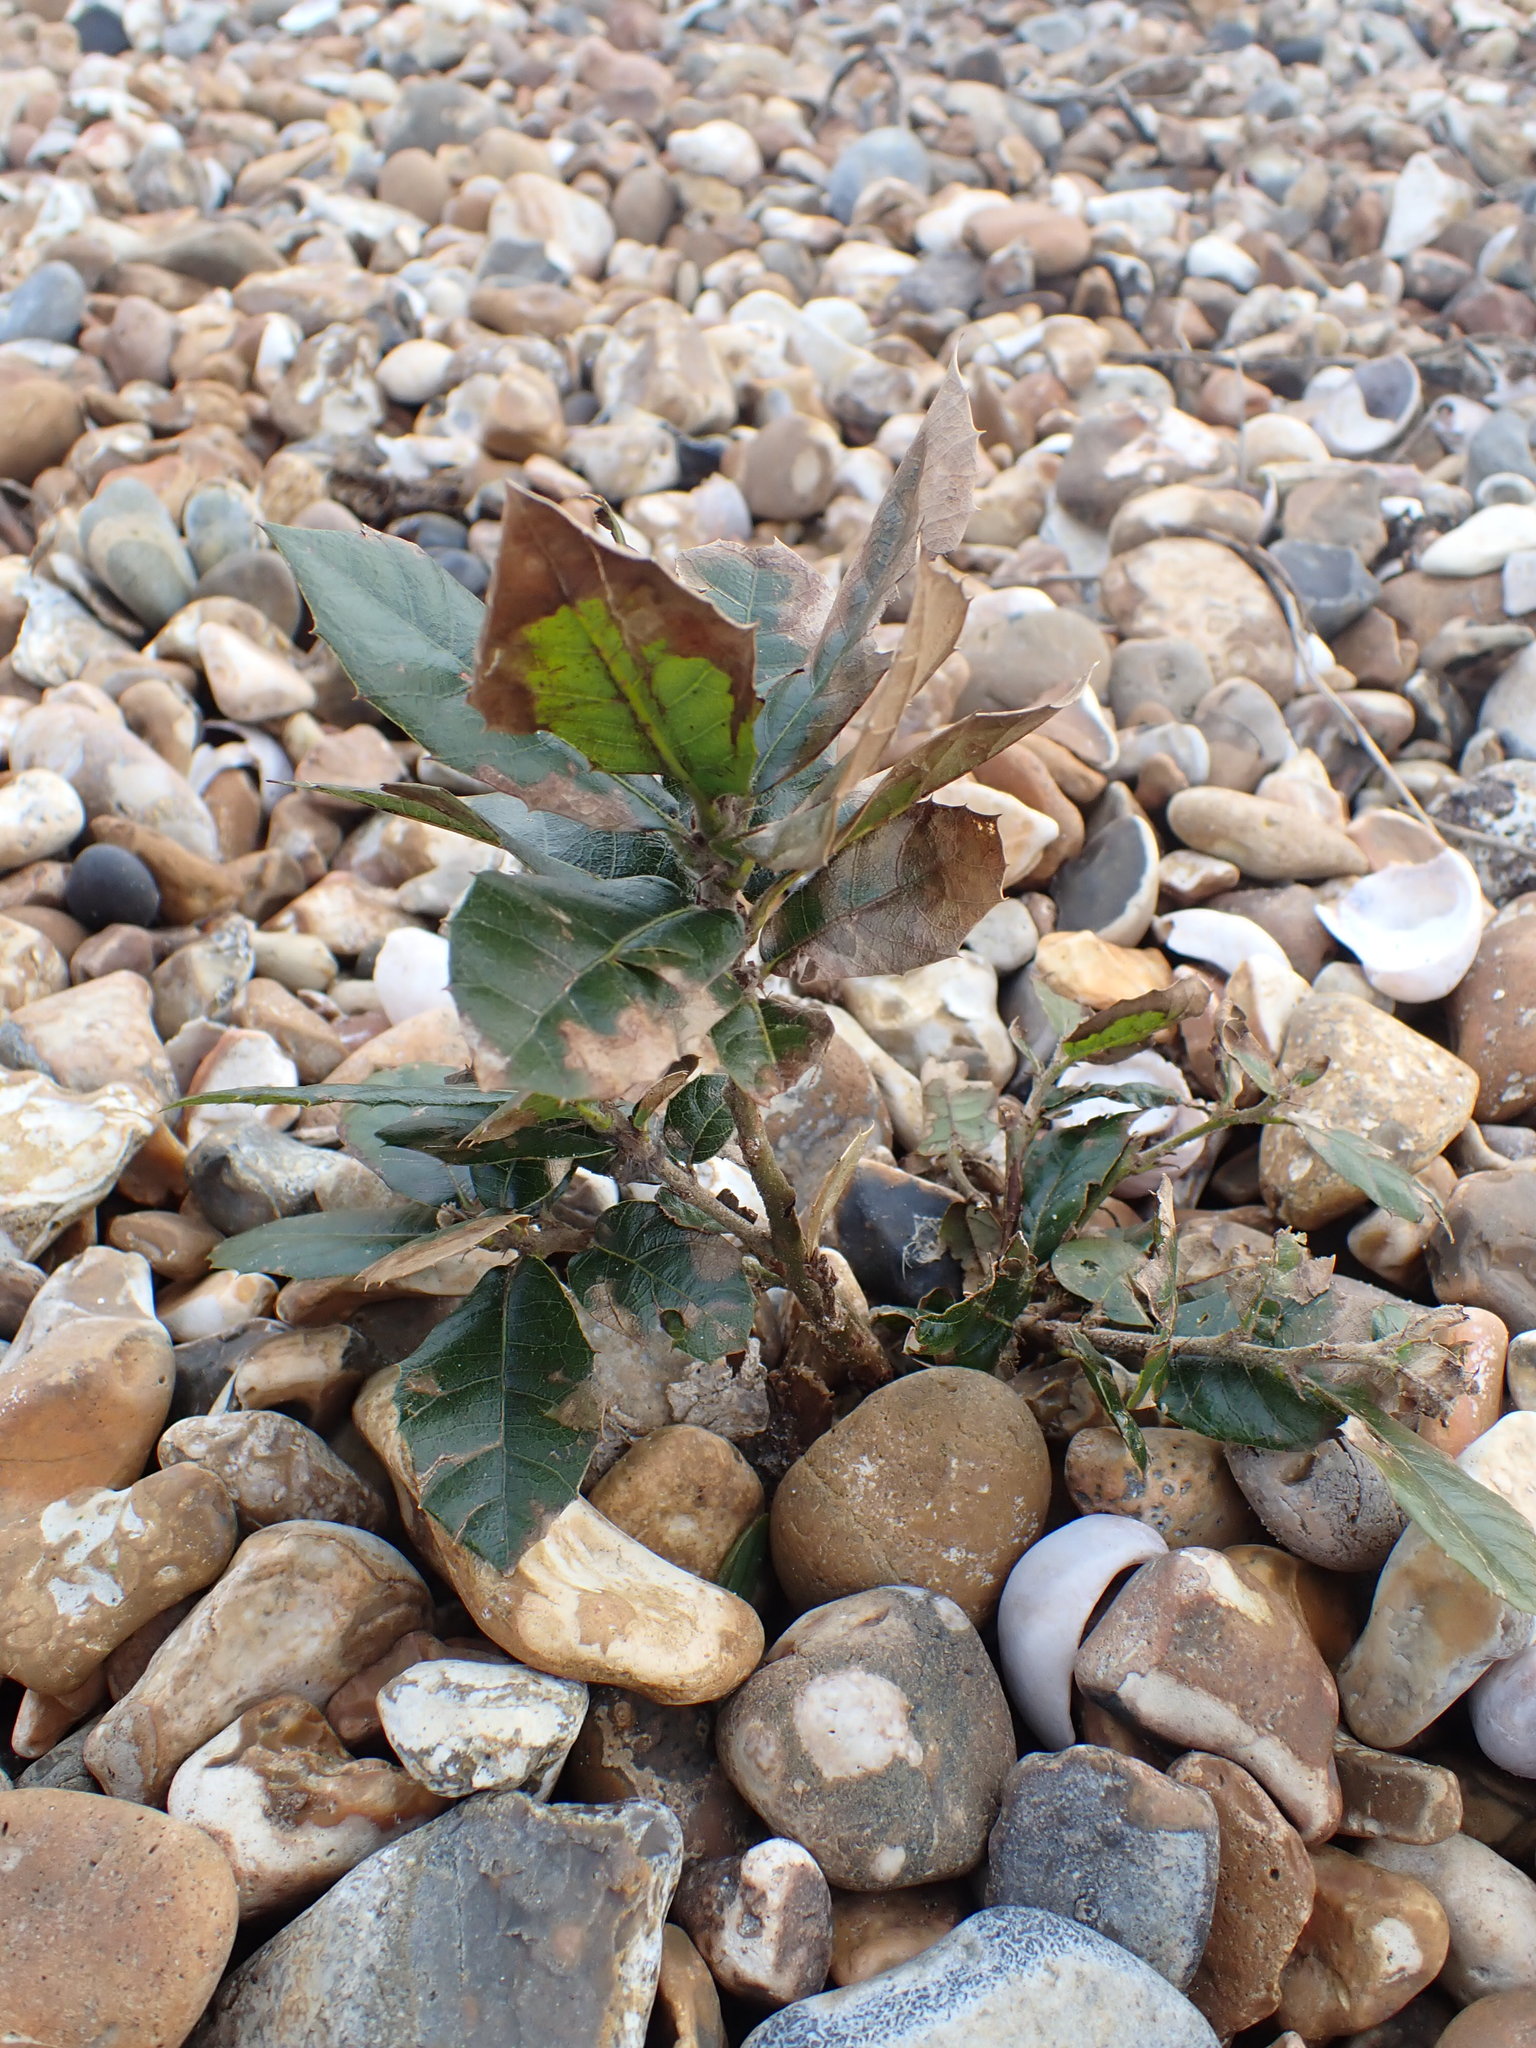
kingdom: Plantae
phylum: Tracheophyta
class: Magnoliopsida
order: Fagales
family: Fagaceae
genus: Quercus
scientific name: Quercus ilex
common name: Evergreen oak
